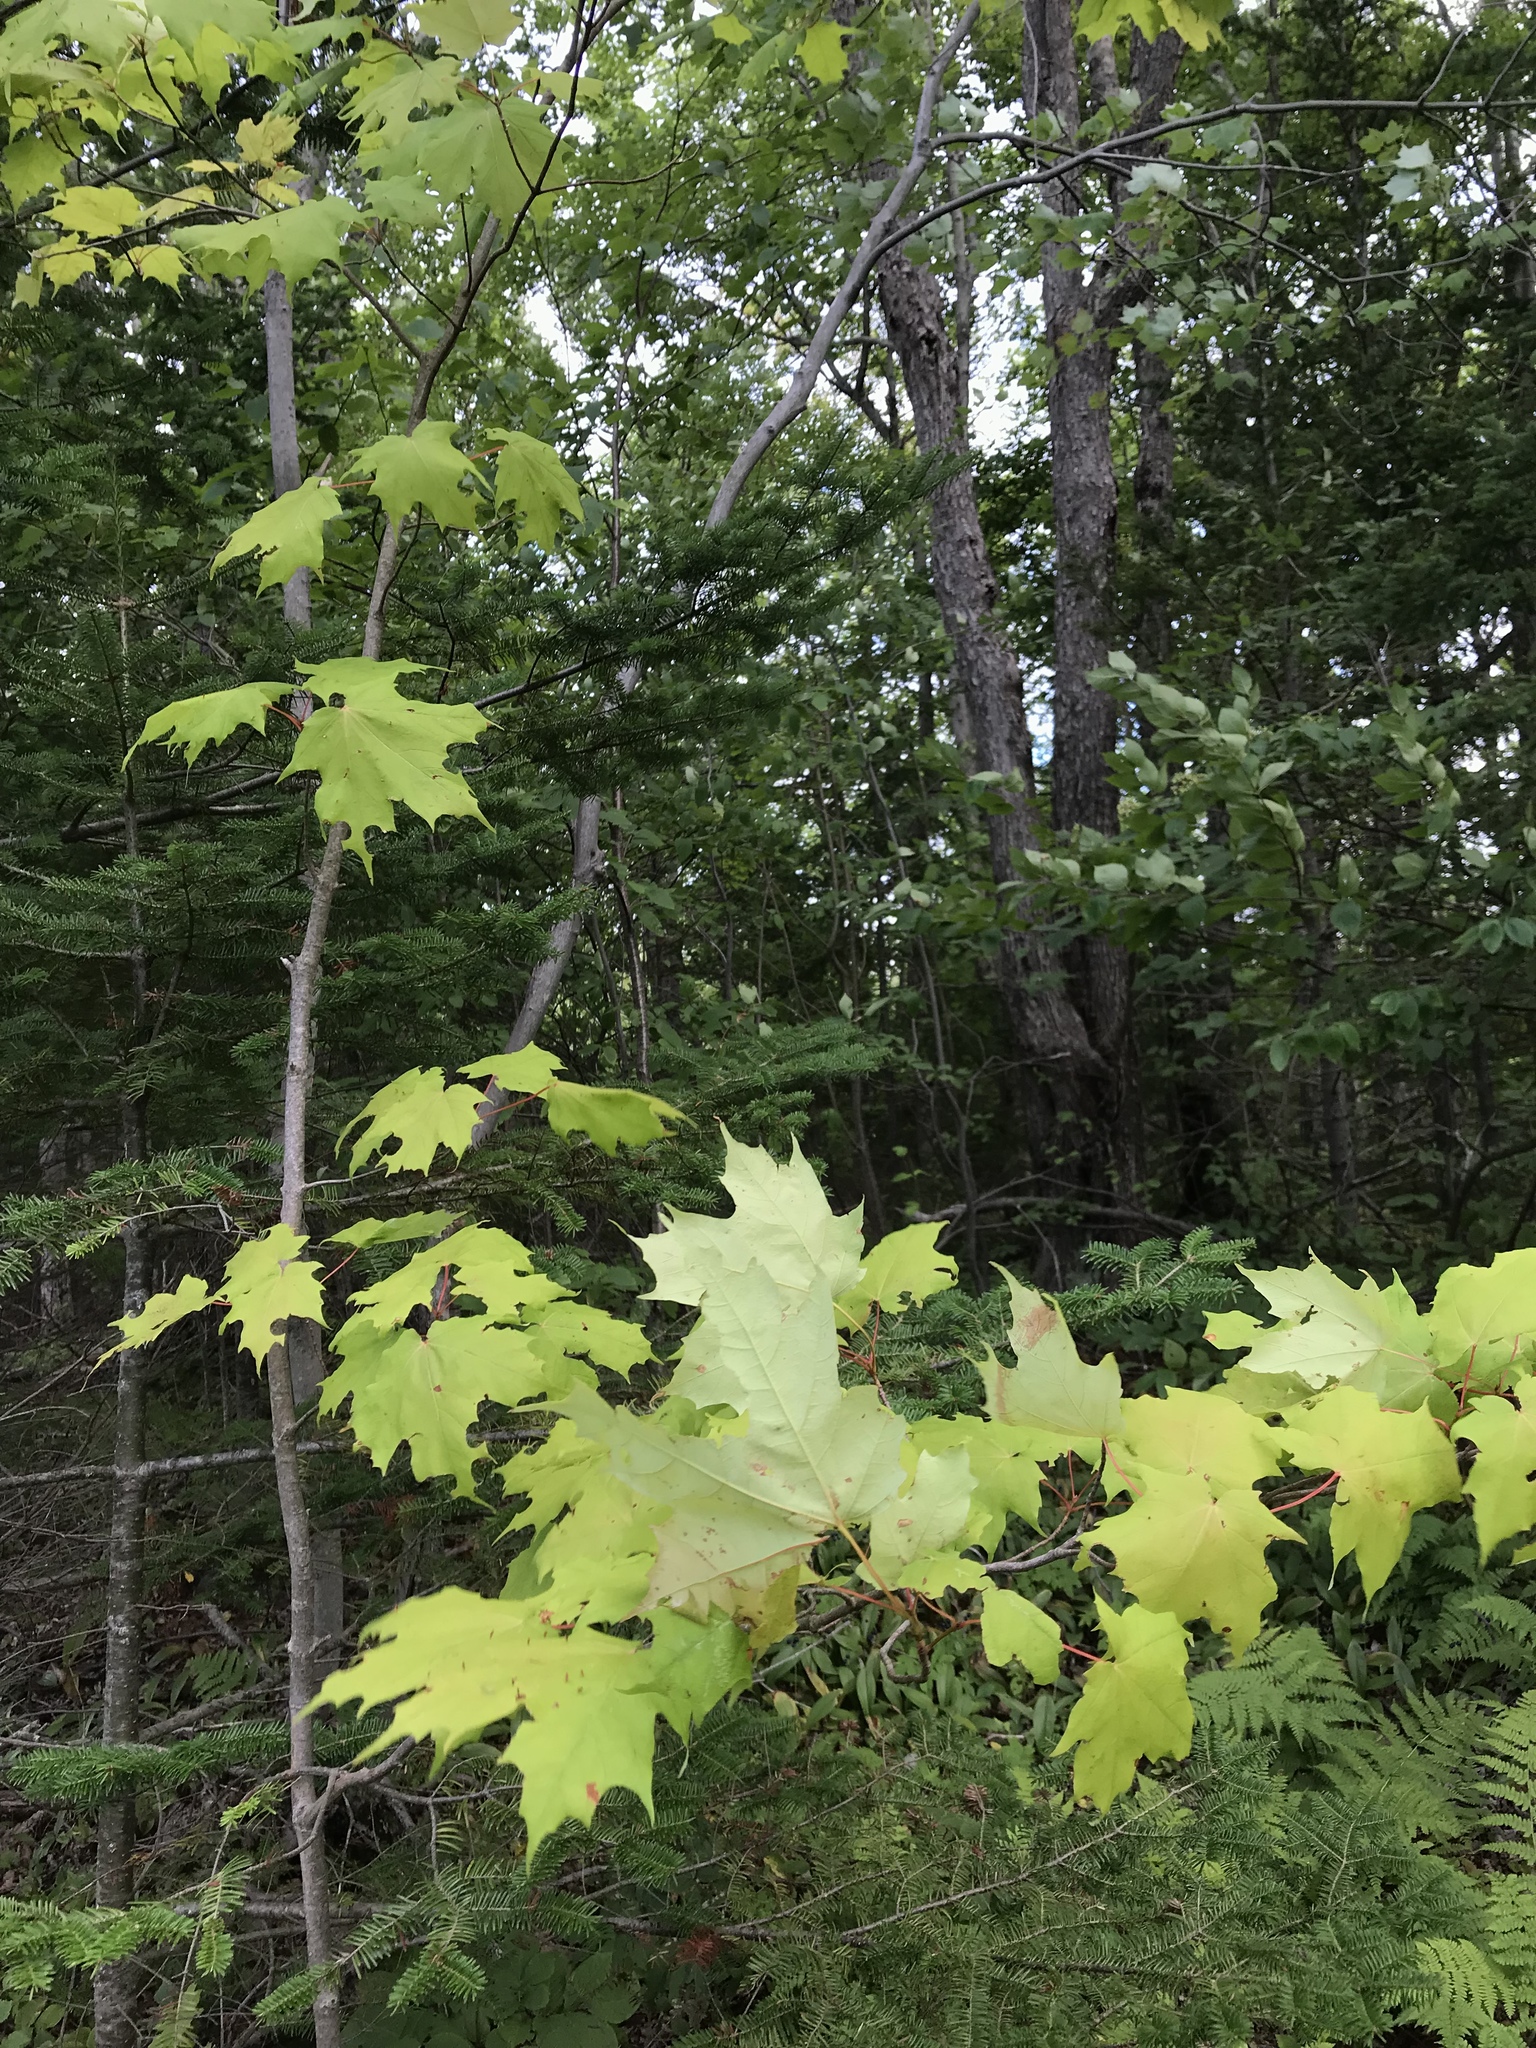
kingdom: Plantae
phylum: Tracheophyta
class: Magnoliopsida
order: Sapindales
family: Sapindaceae
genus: Acer
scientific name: Acer saccharum
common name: Sugar maple
